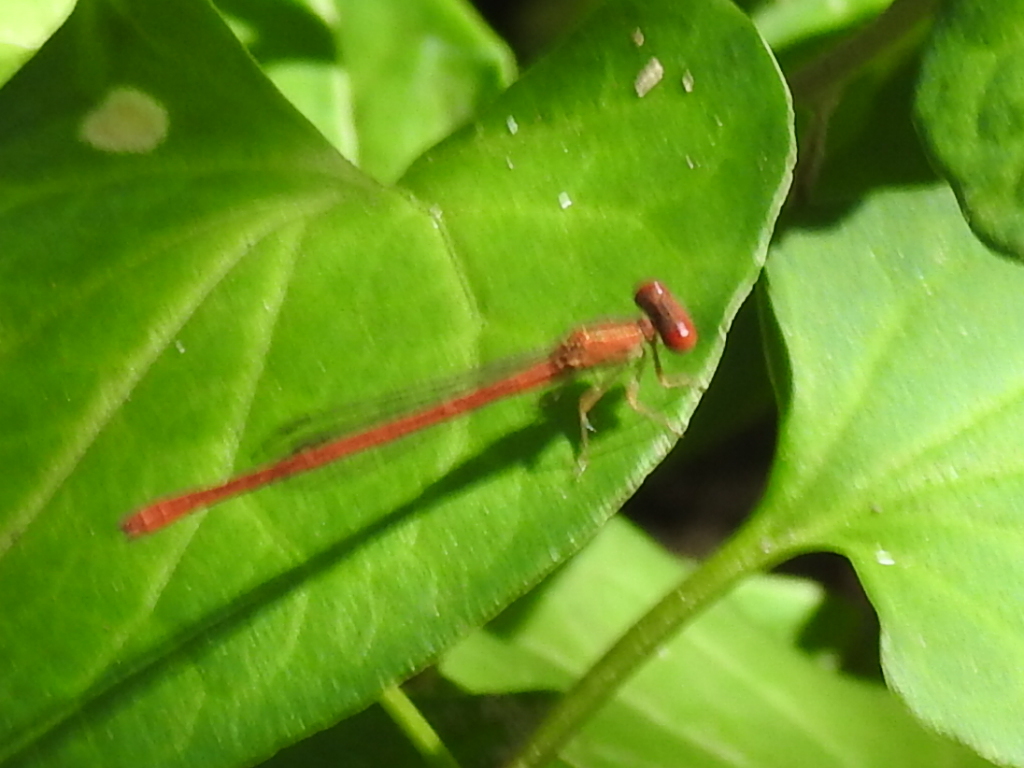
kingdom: Animalia
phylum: Arthropoda
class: Insecta
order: Odonata
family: Coenagrionidae
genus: Telebasis
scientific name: Telebasis salva
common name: Desert firetail
